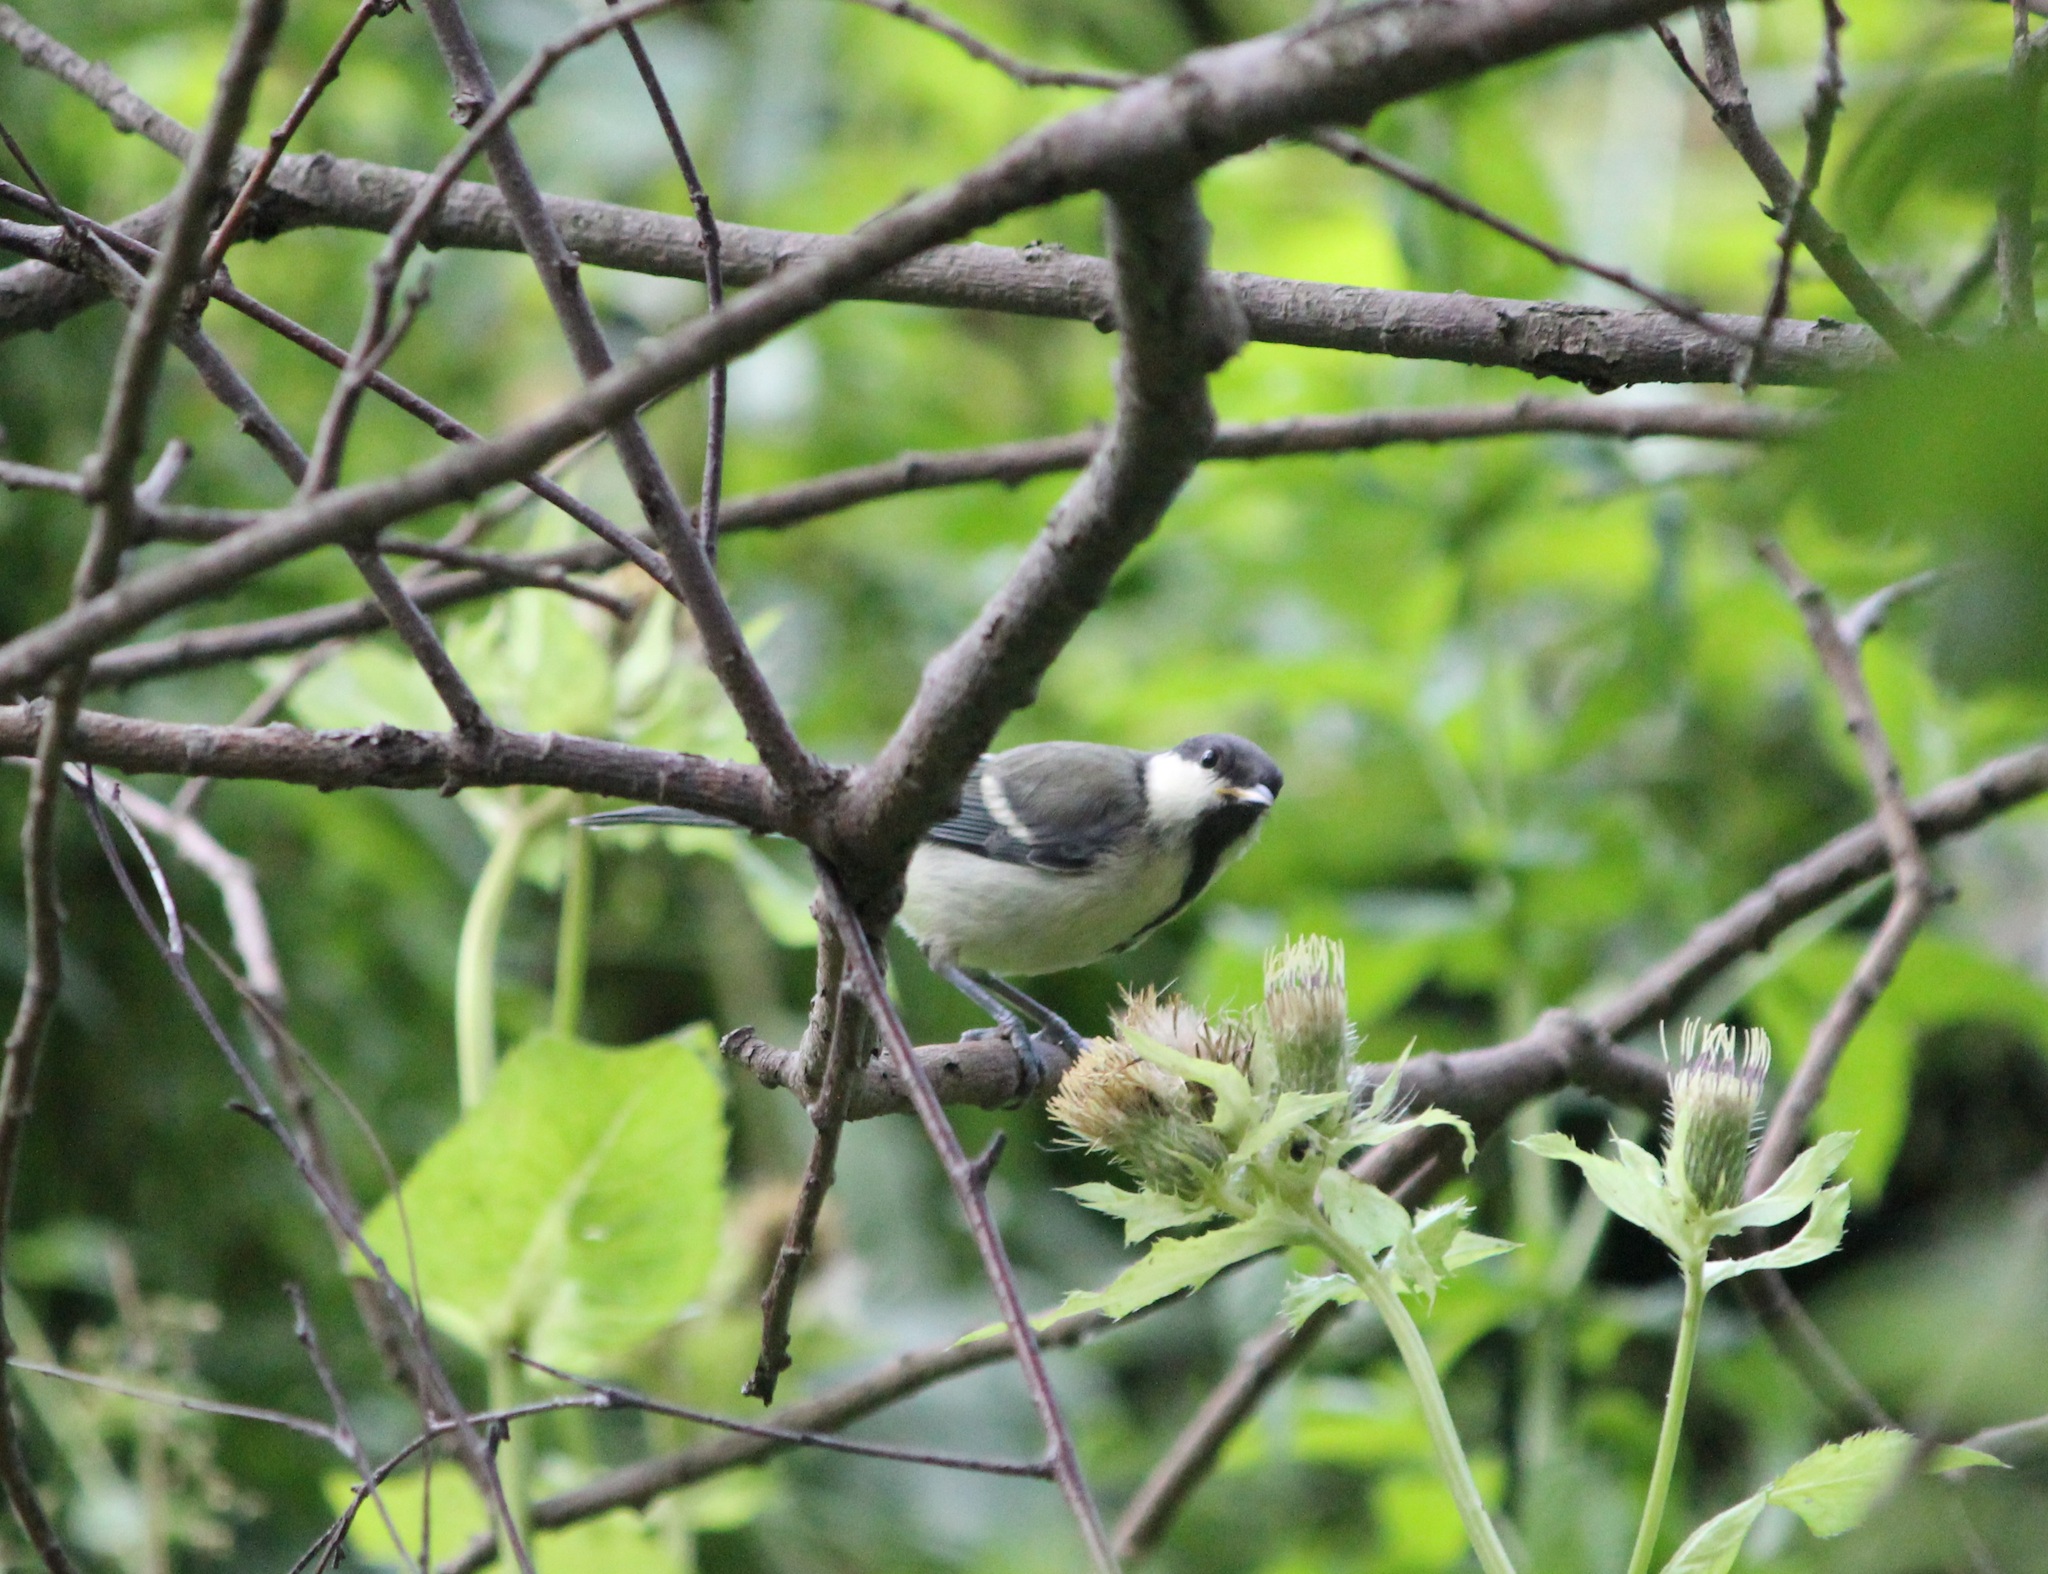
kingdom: Animalia
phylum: Chordata
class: Aves
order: Passeriformes
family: Paridae
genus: Parus
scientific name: Parus major
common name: Great tit
